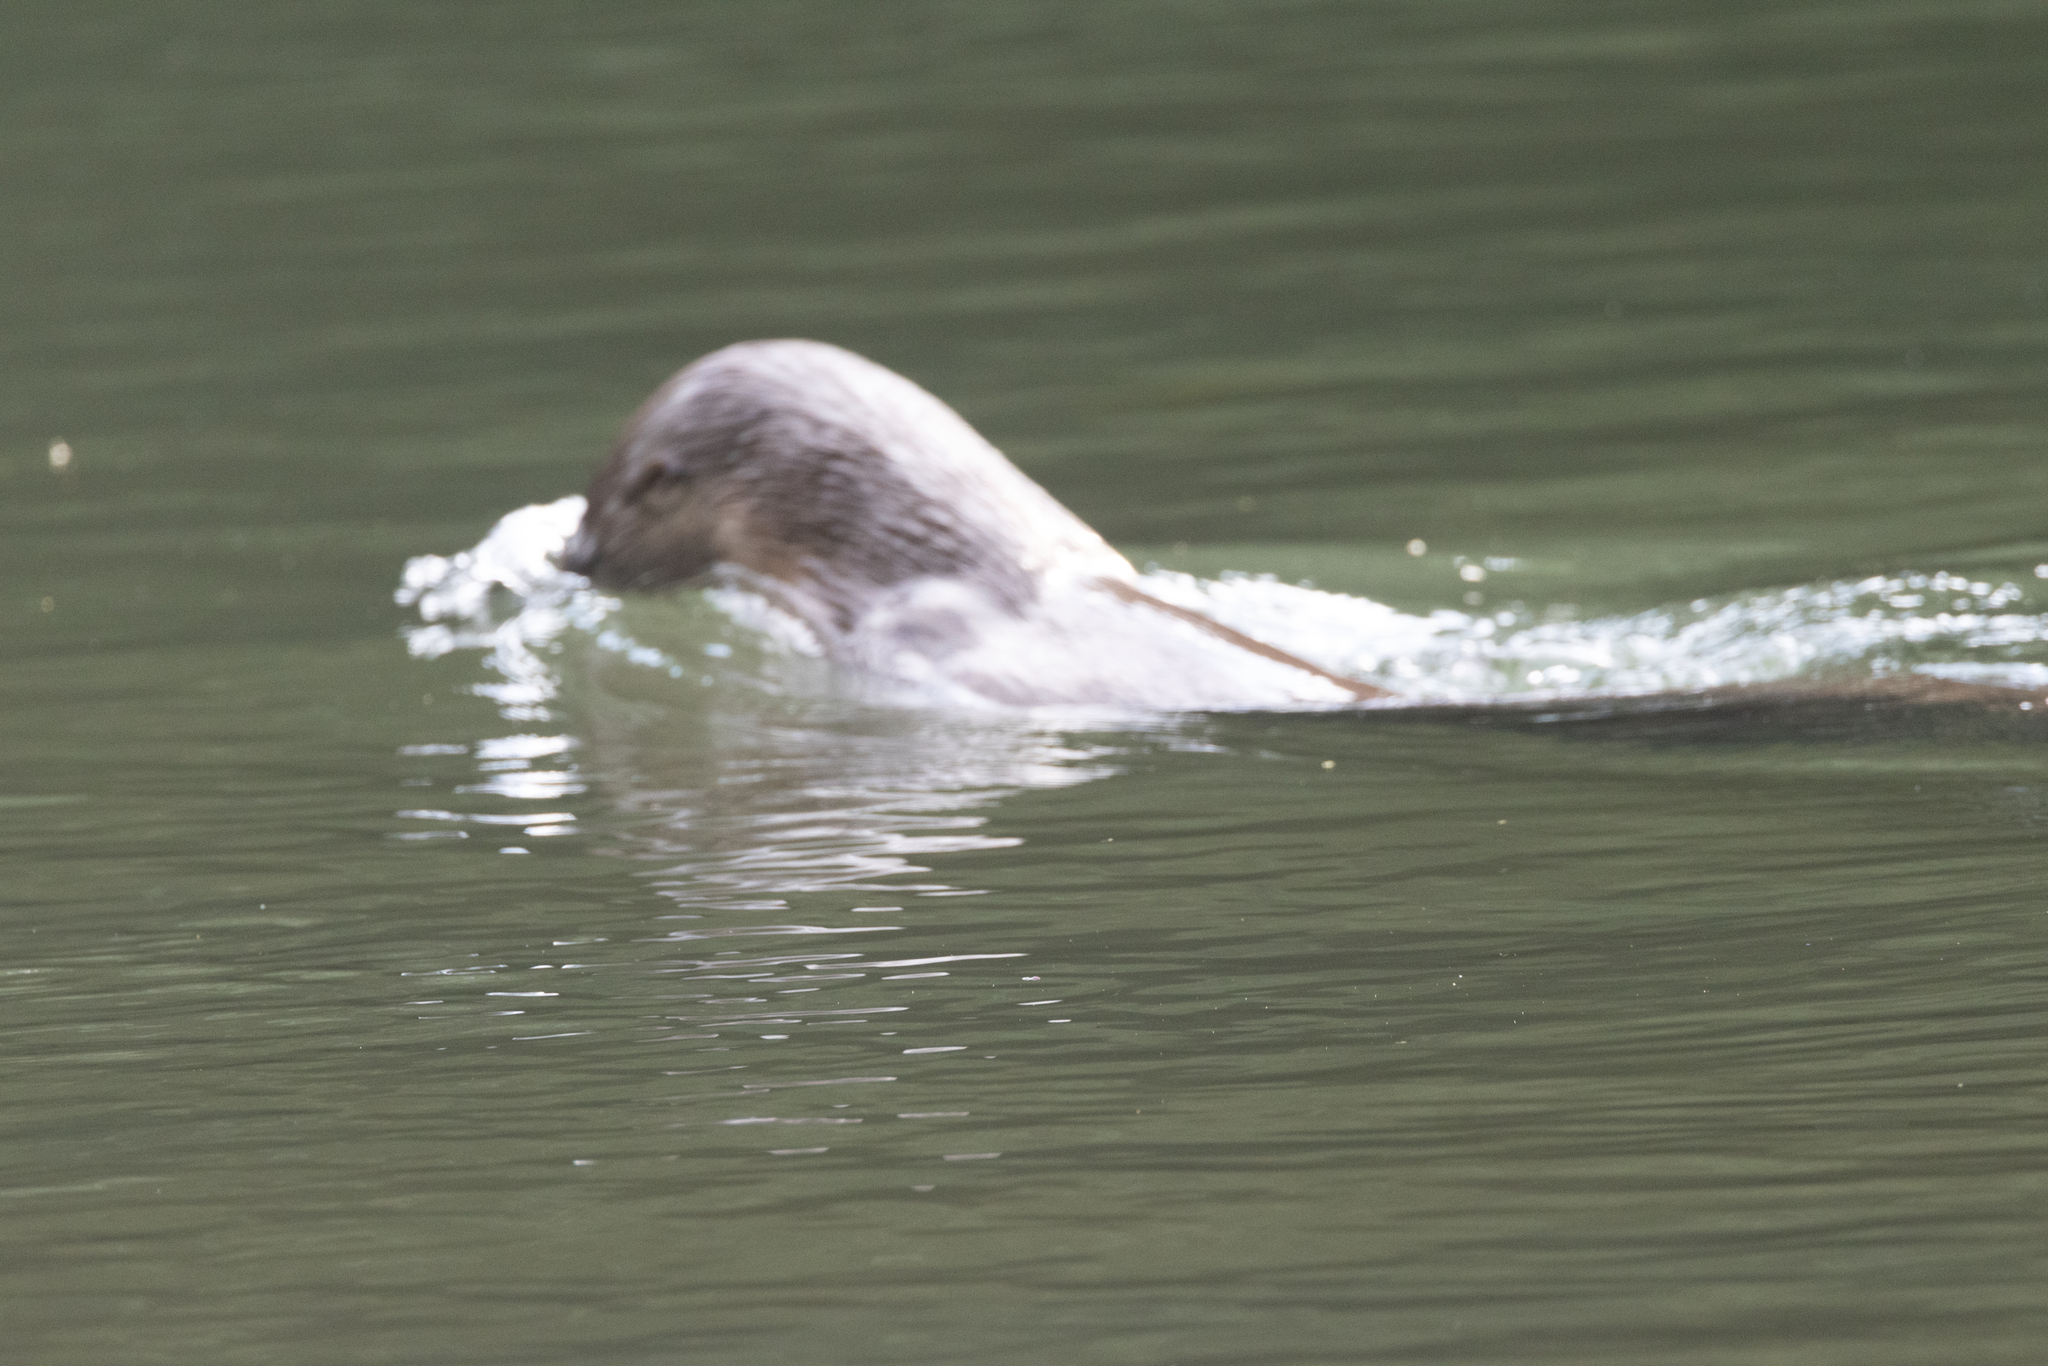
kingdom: Animalia
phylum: Chordata
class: Mammalia
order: Carnivora
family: Mustelidae
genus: Lontra
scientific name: Lontra longicaudis
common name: Neotropical otter
